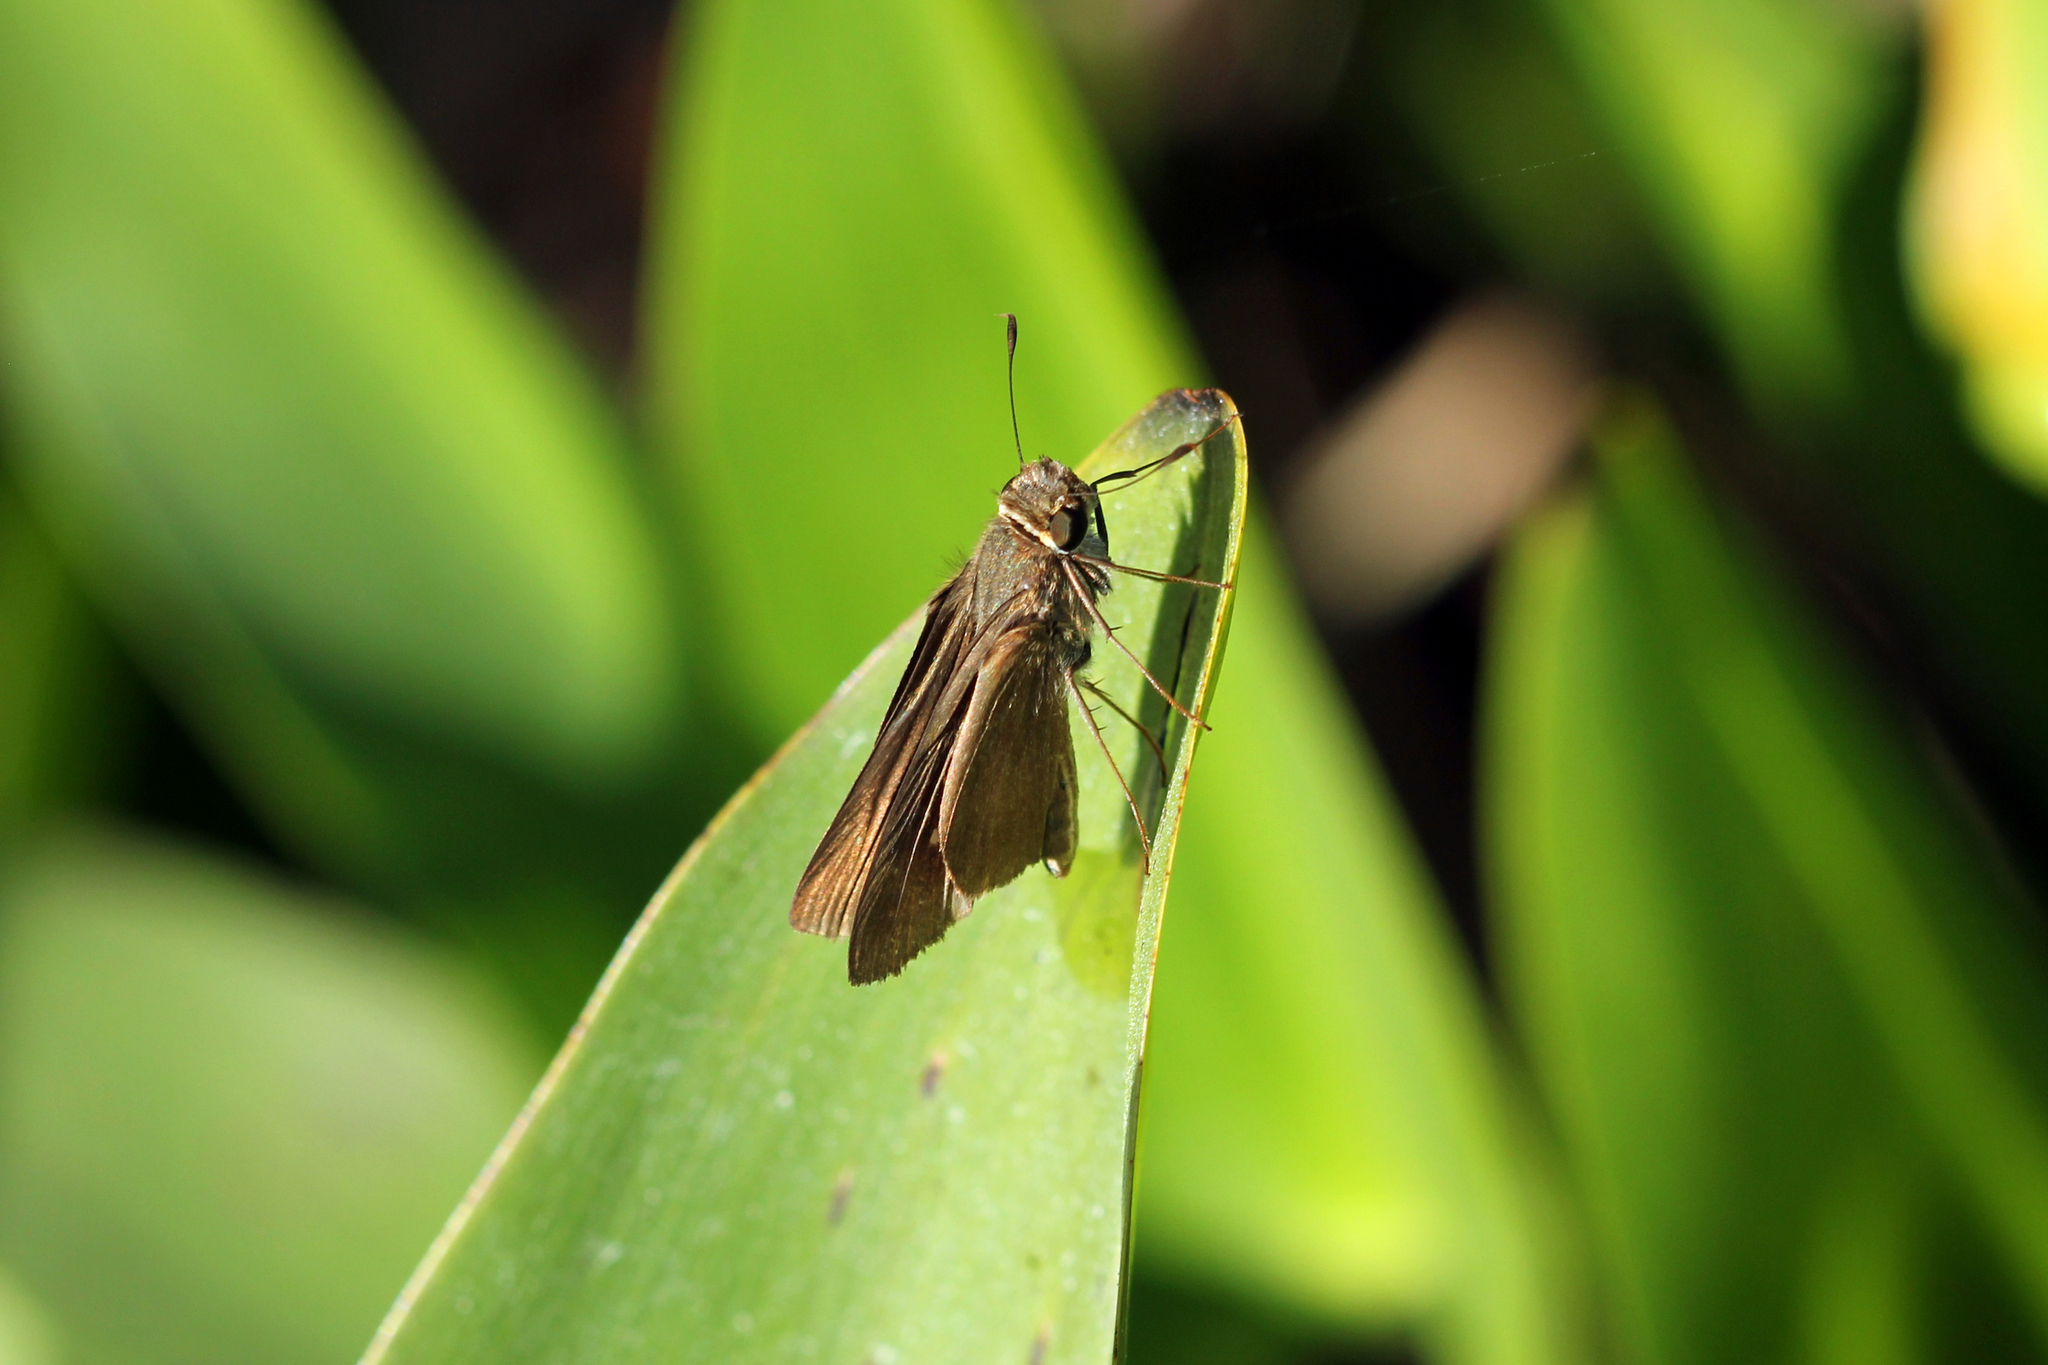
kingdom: Animalia
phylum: Arthropoda
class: Insecta
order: Lepidoptera
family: Hesperiidae
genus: Panoquina
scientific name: Panoquina ocola
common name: Ocola skipper
